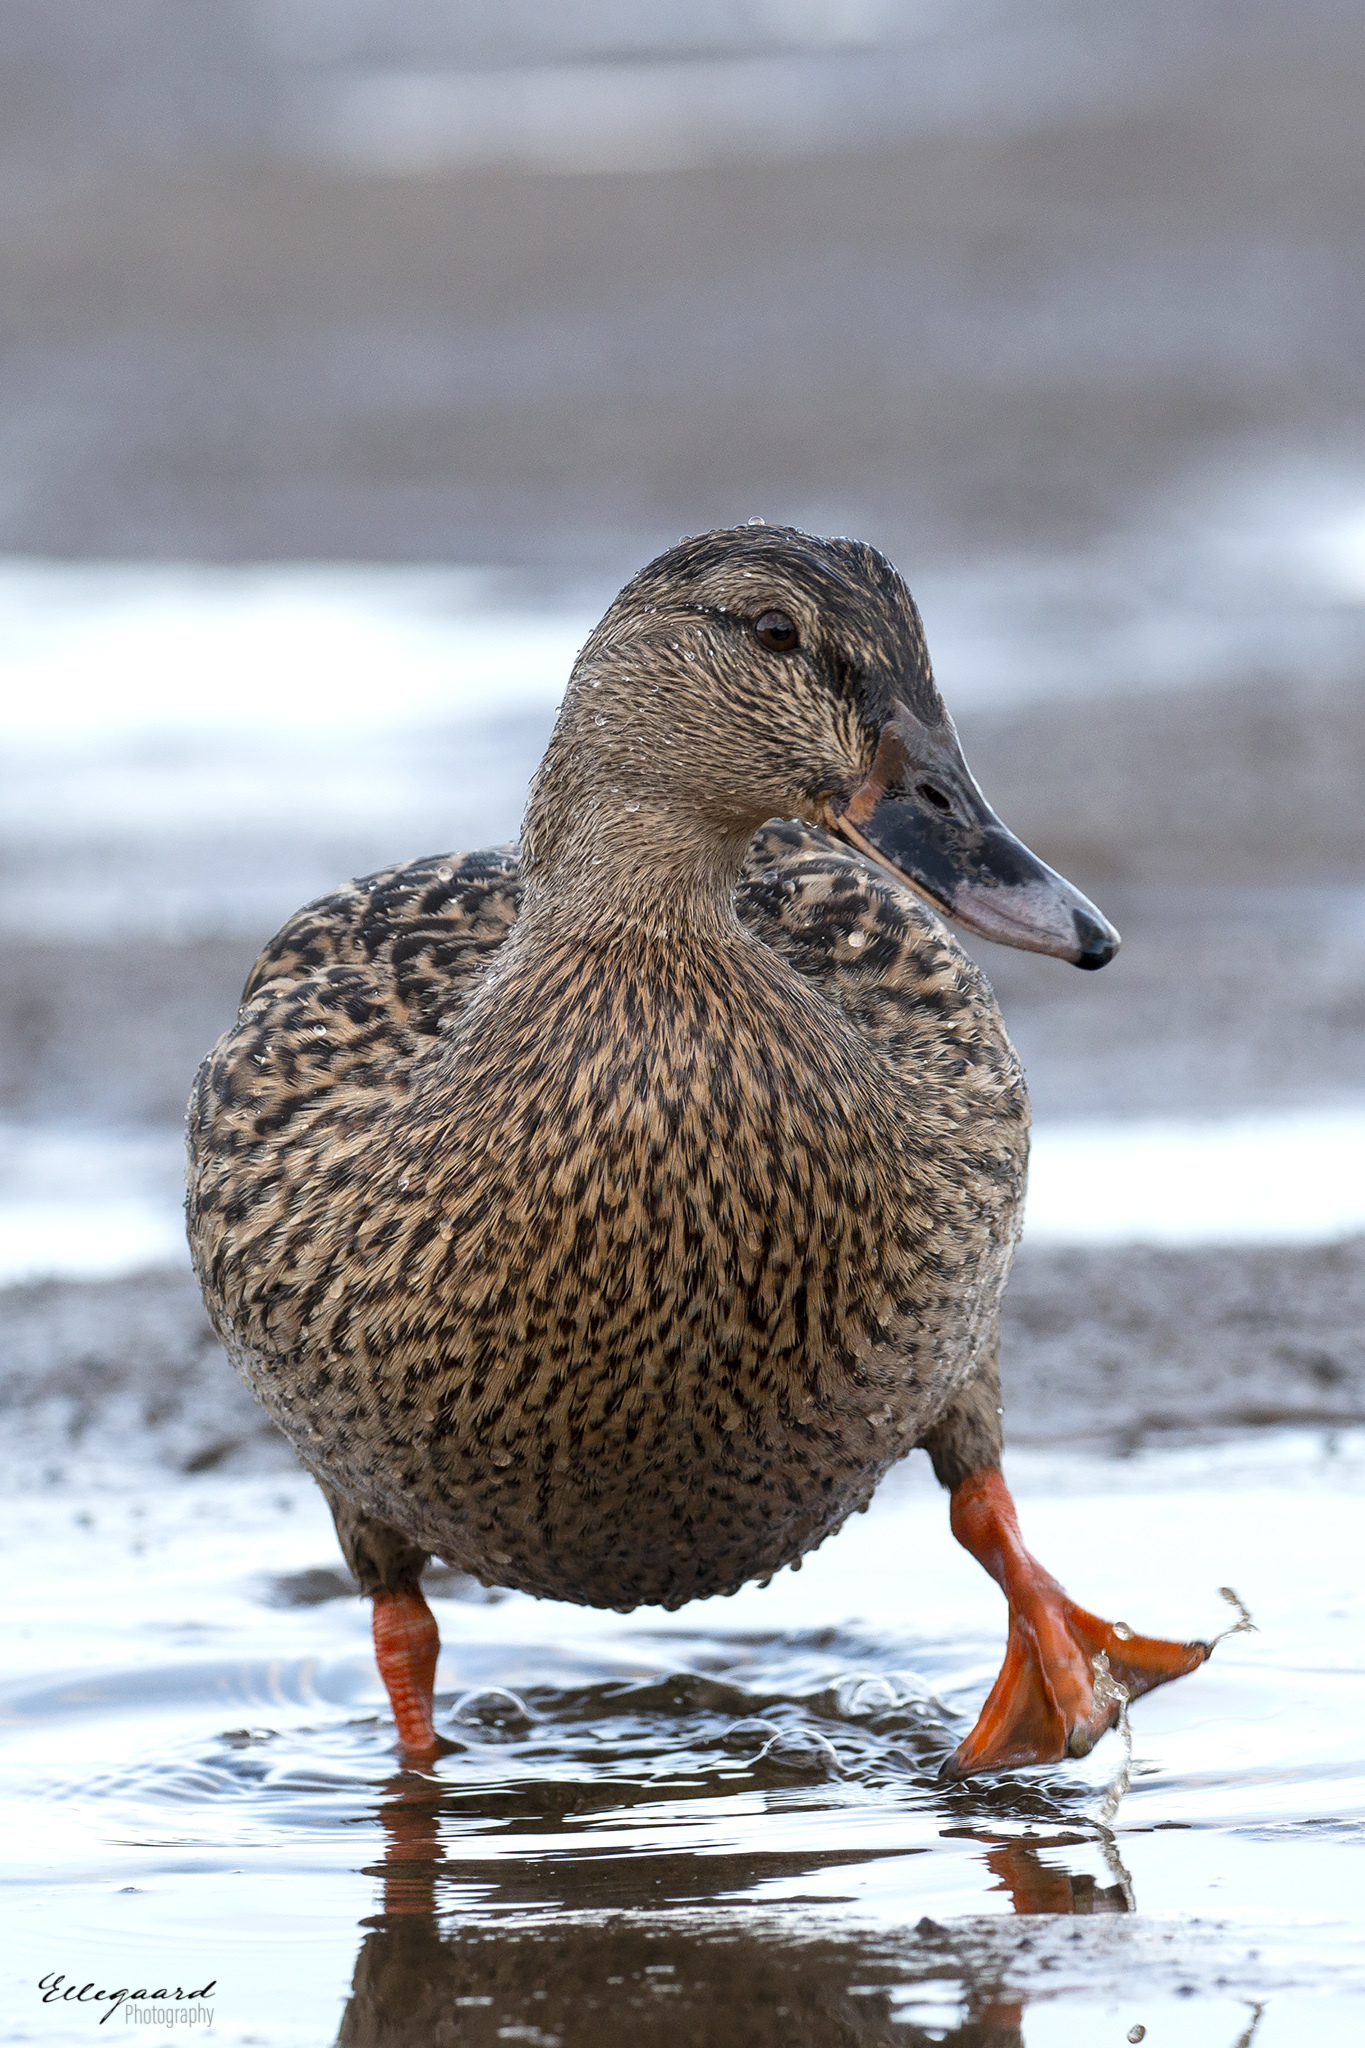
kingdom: Animalia
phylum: Chordata
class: Aves
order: Anseriformes
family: Anatidae
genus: Anas
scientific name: Anas platyrhynchos
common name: Mallard
